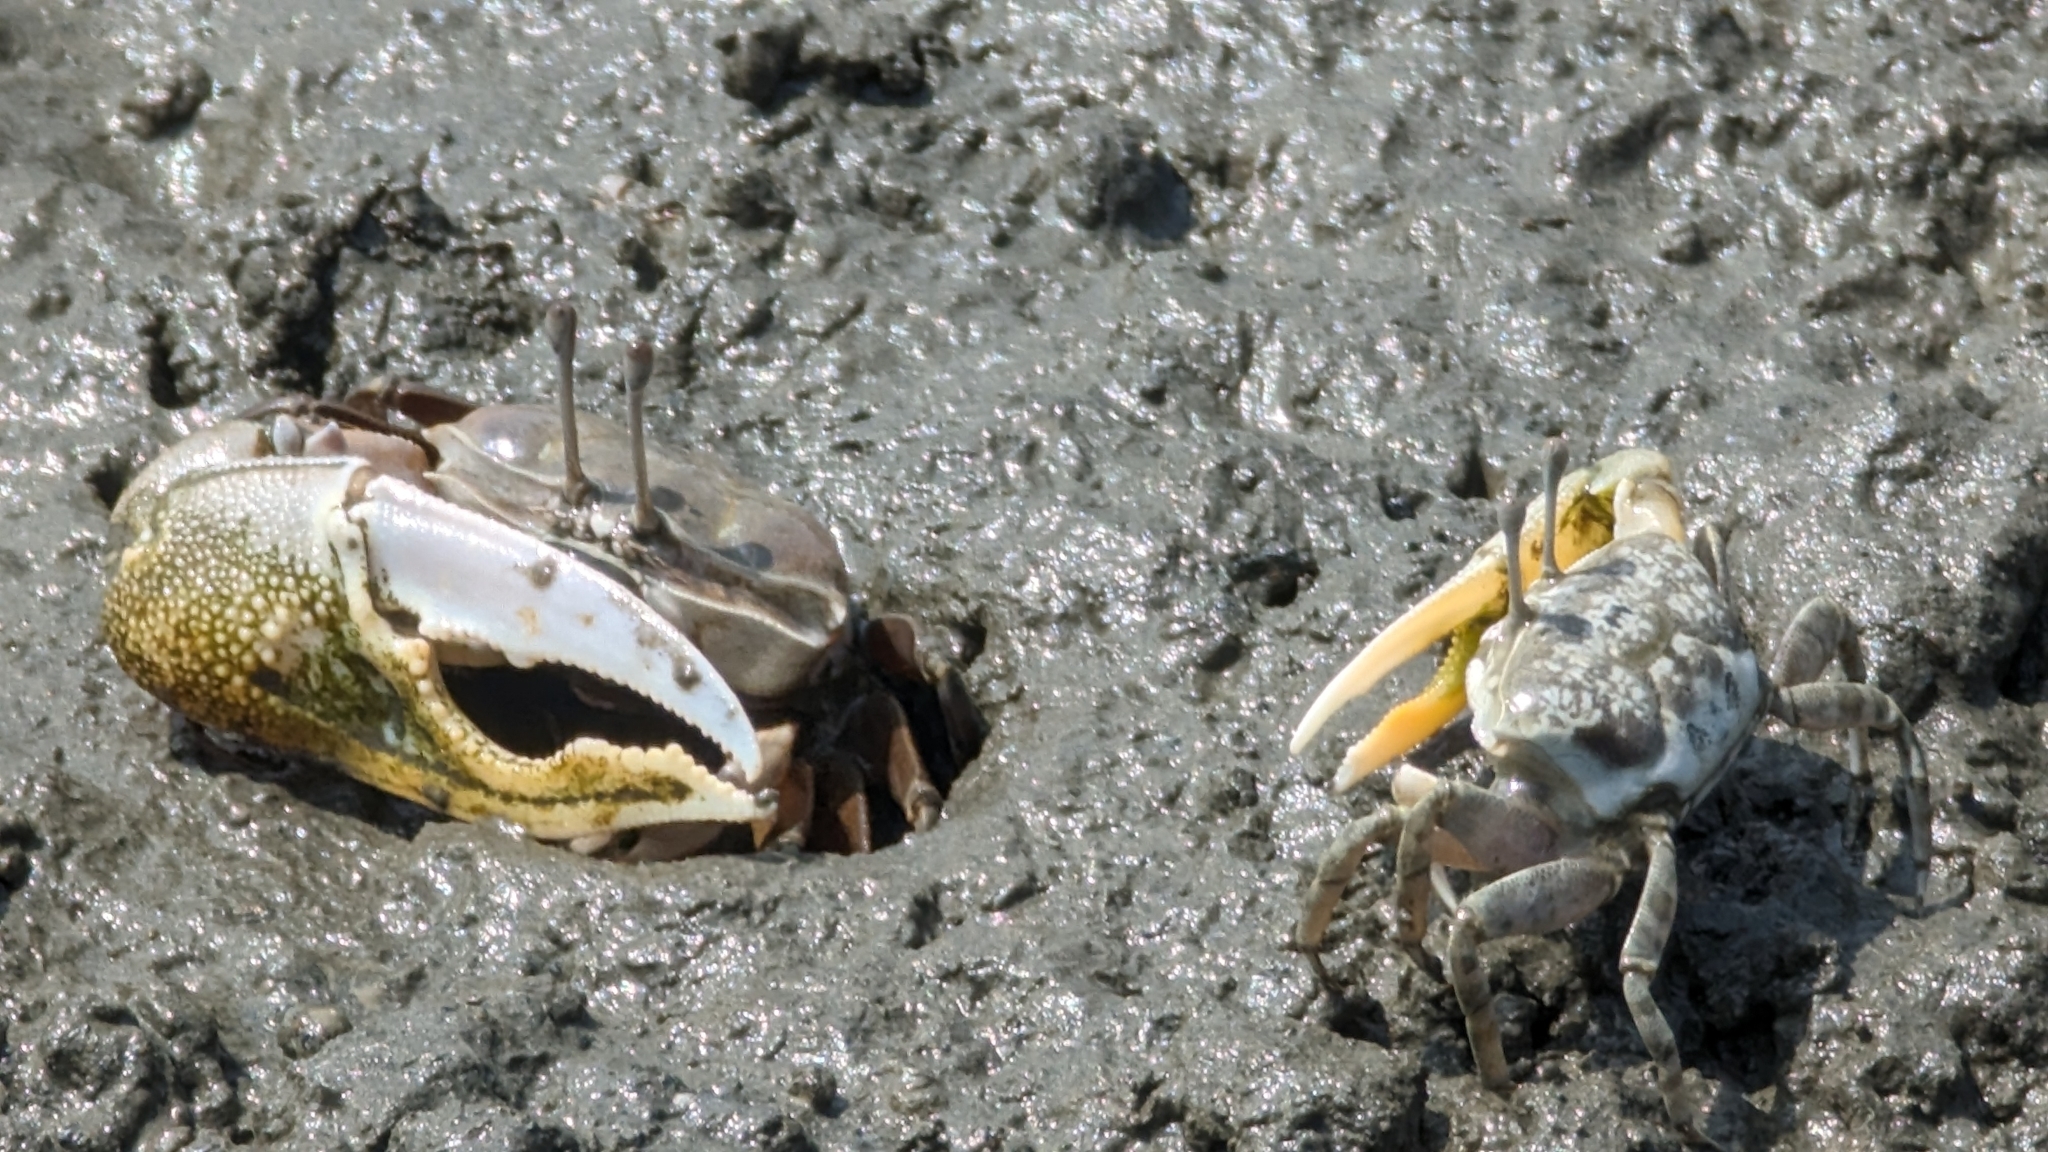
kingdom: Animalia
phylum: Arthropoda
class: Malacostraca
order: Decapoda
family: Ocypodidae
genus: Gelasimus
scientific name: Gelasimus borealis
